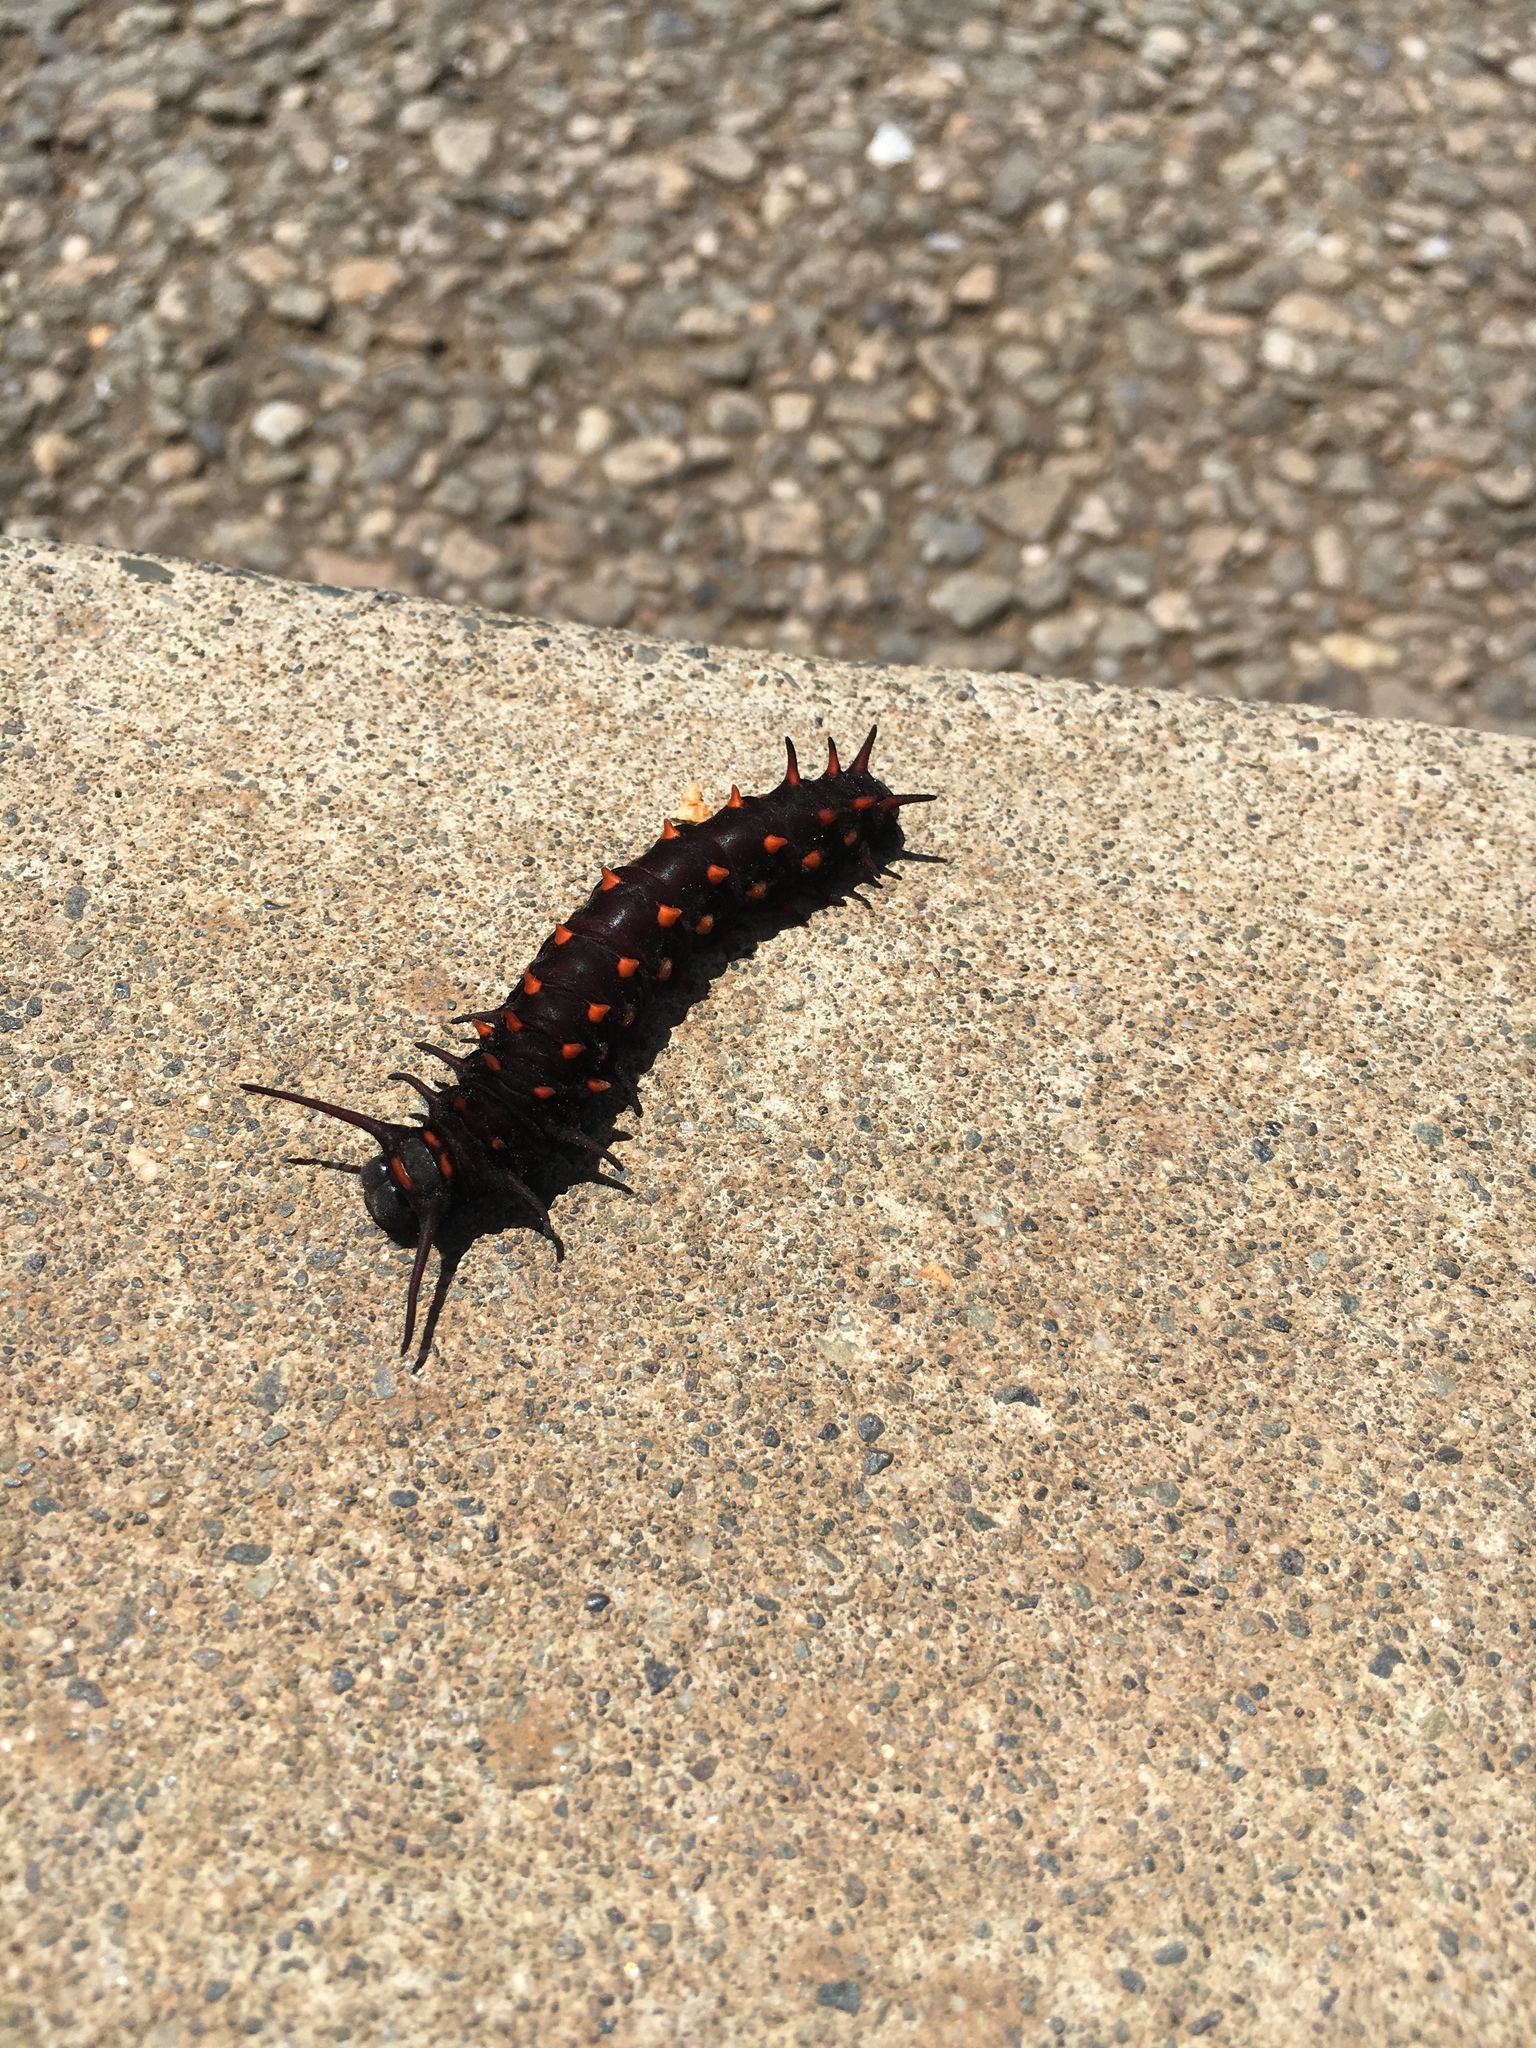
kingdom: Animalia
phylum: Arthropoda
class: Insecta
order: Lepidoptera
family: Papilionidae
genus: Battus
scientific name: Battus philenor
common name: Pipevine swallowtail
